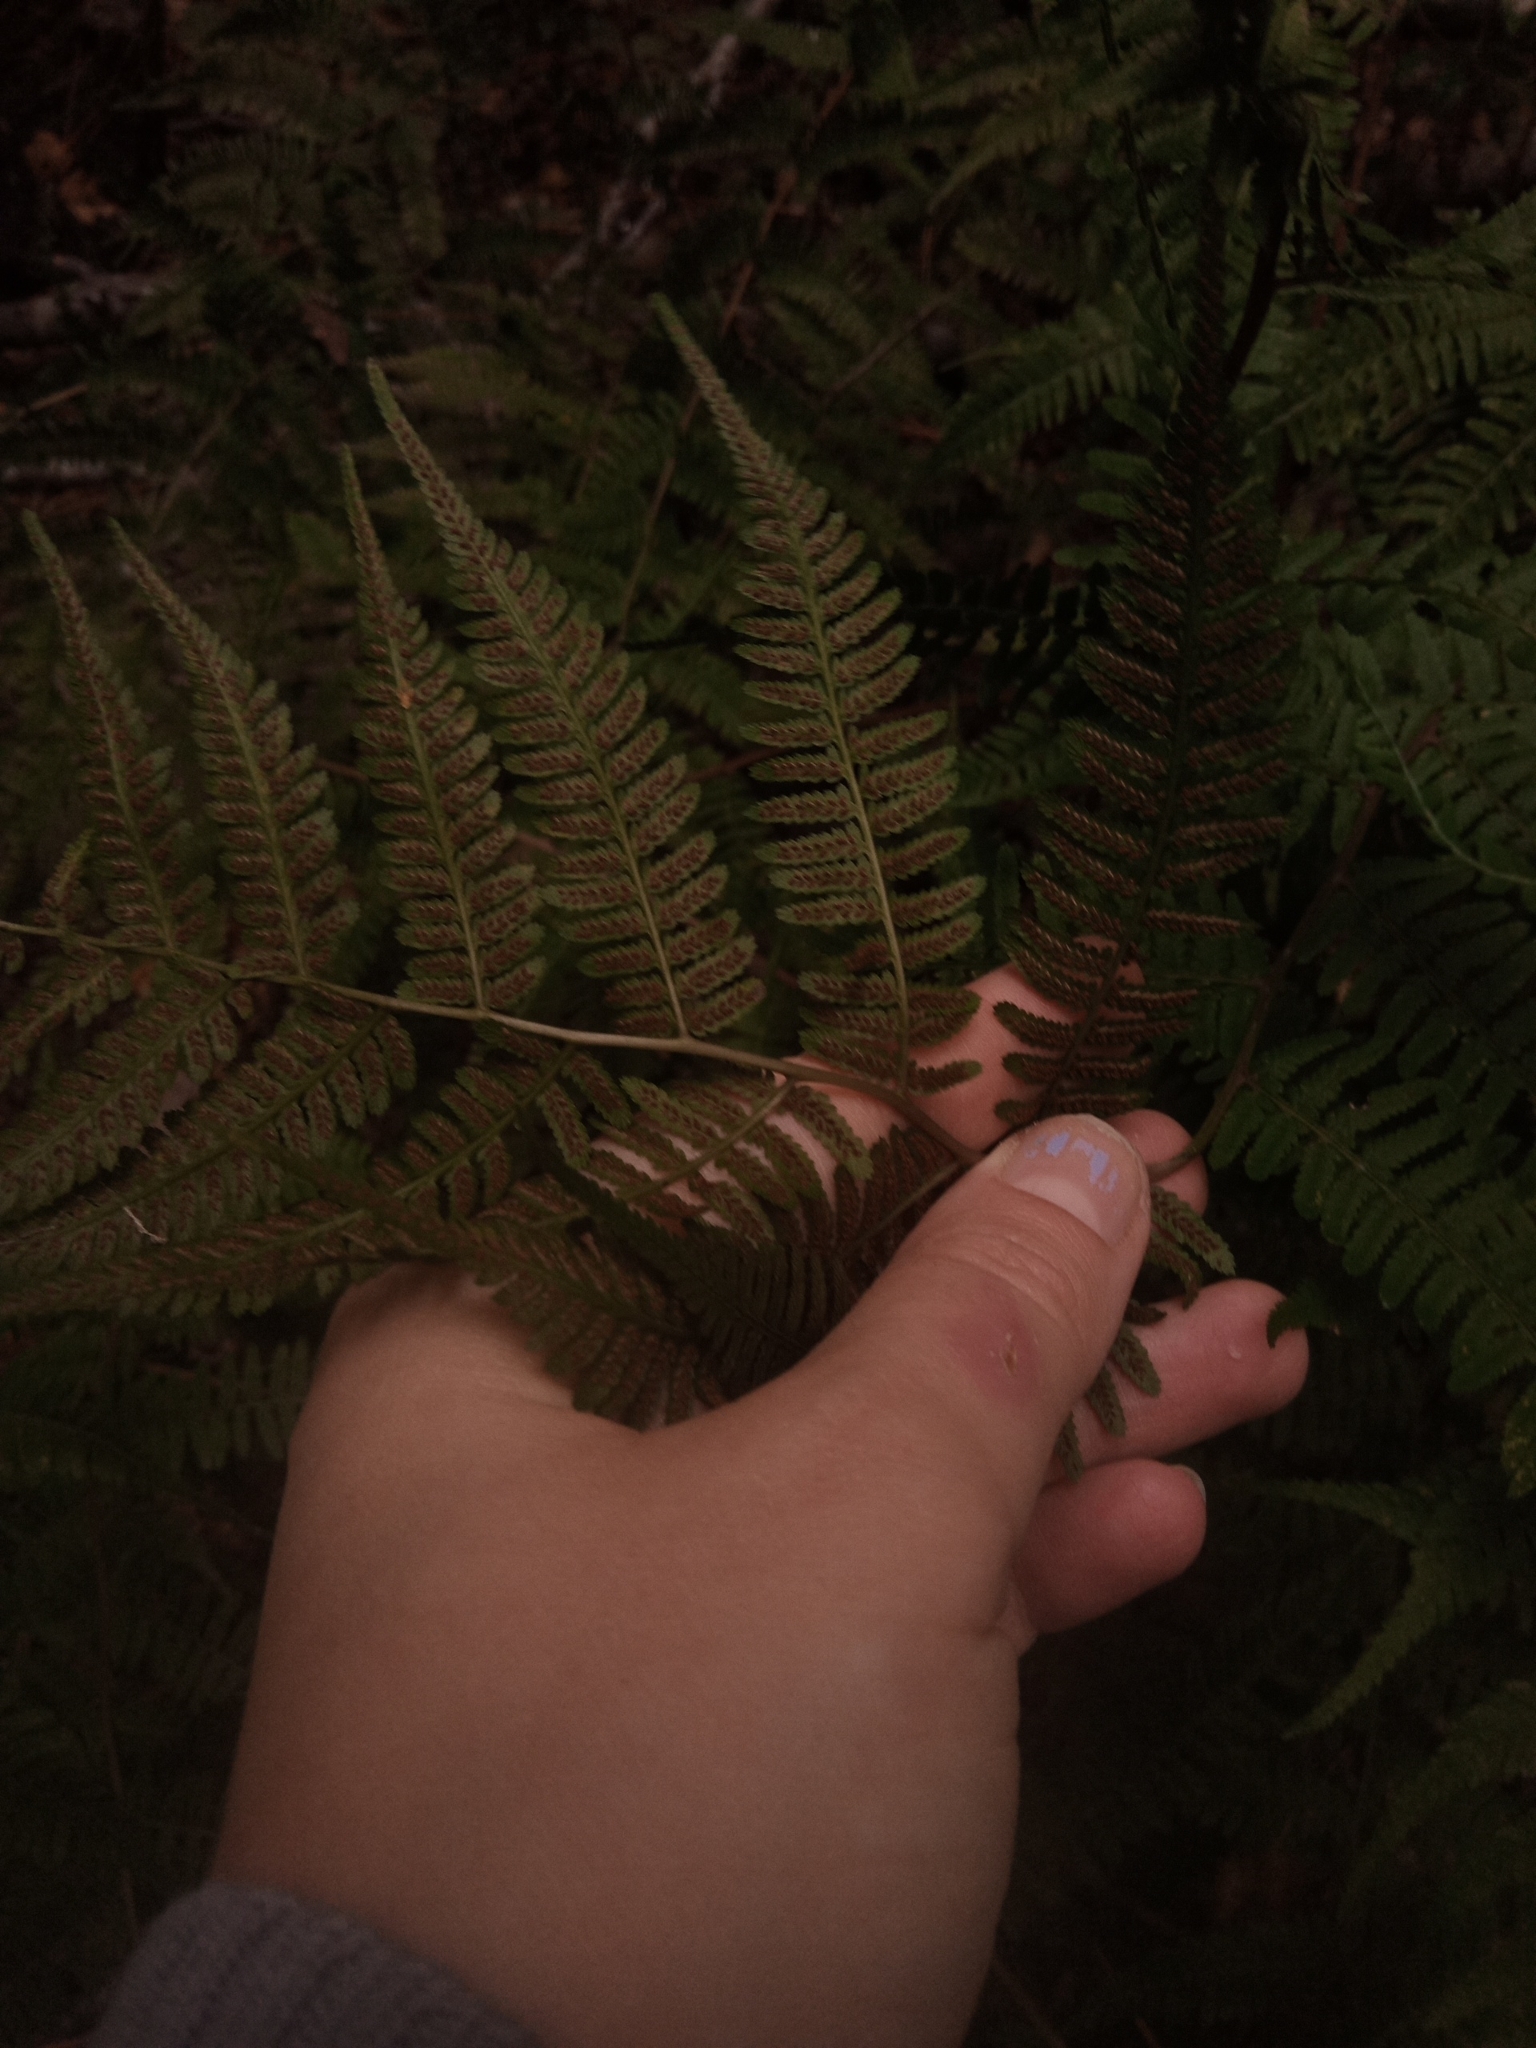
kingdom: Plantae
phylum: Tracheophyta
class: Polypodiopsida
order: Polypodiales
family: Athyriaceae
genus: Athyrium
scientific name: Athyrium asplenioides
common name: Southern lady fern
